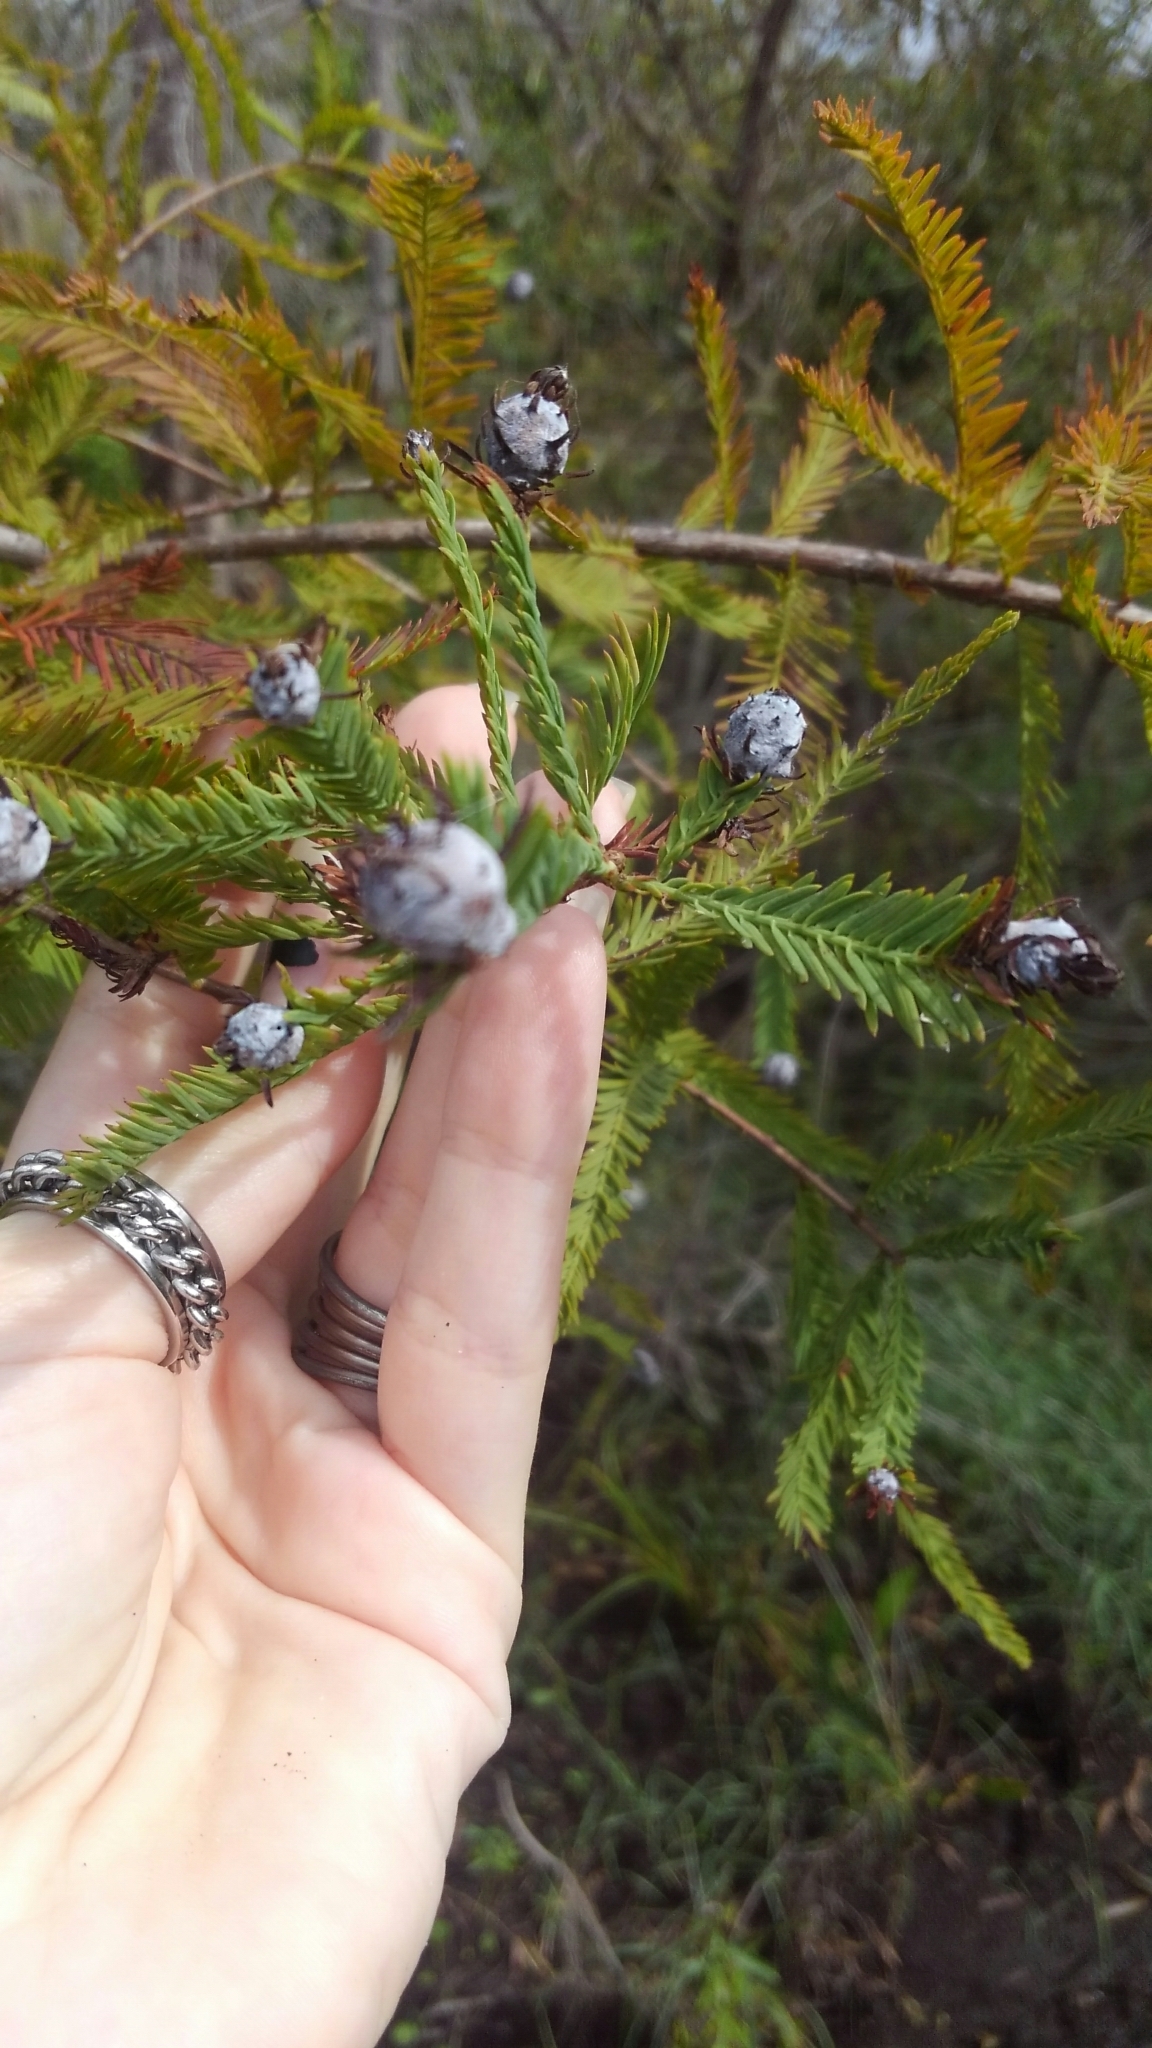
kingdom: Animalia
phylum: Arthropoda
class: Insecta
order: Diptera
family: Cecidomyiidae
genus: Taxodiomyia
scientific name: Taxodiomyia cupressiananassa
